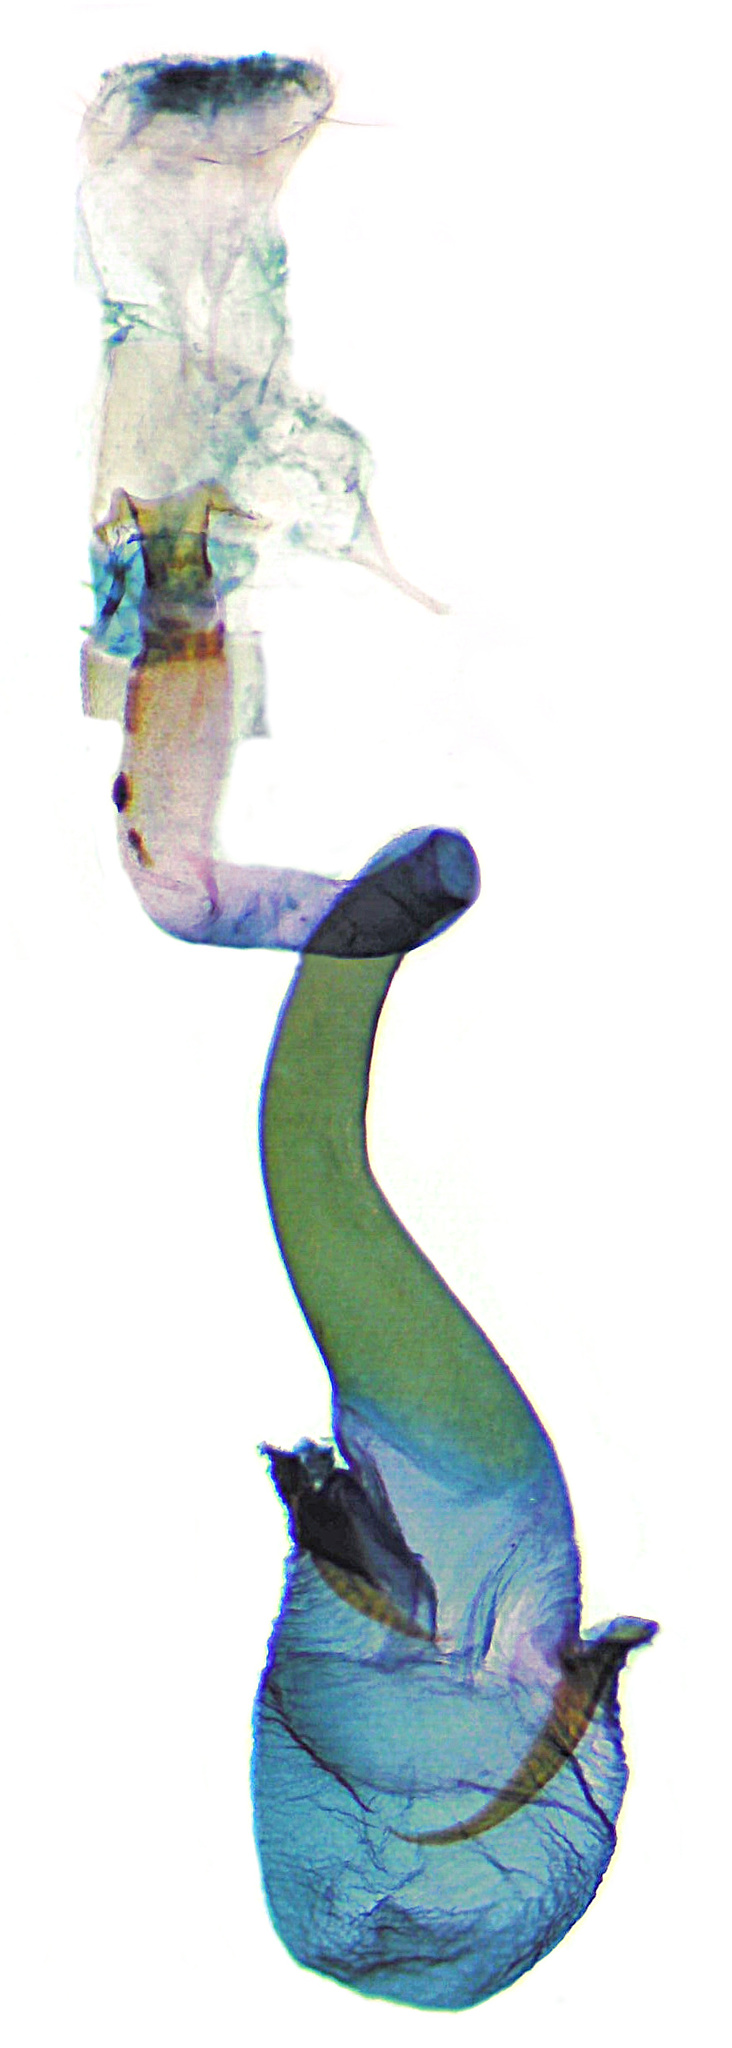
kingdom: Animalia
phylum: Arthropoda
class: Insecta
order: Lepidoptera
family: Gracillariidae
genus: Caloptilia
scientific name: Caloptilia bimaculatella
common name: Maple caloptilia moth
